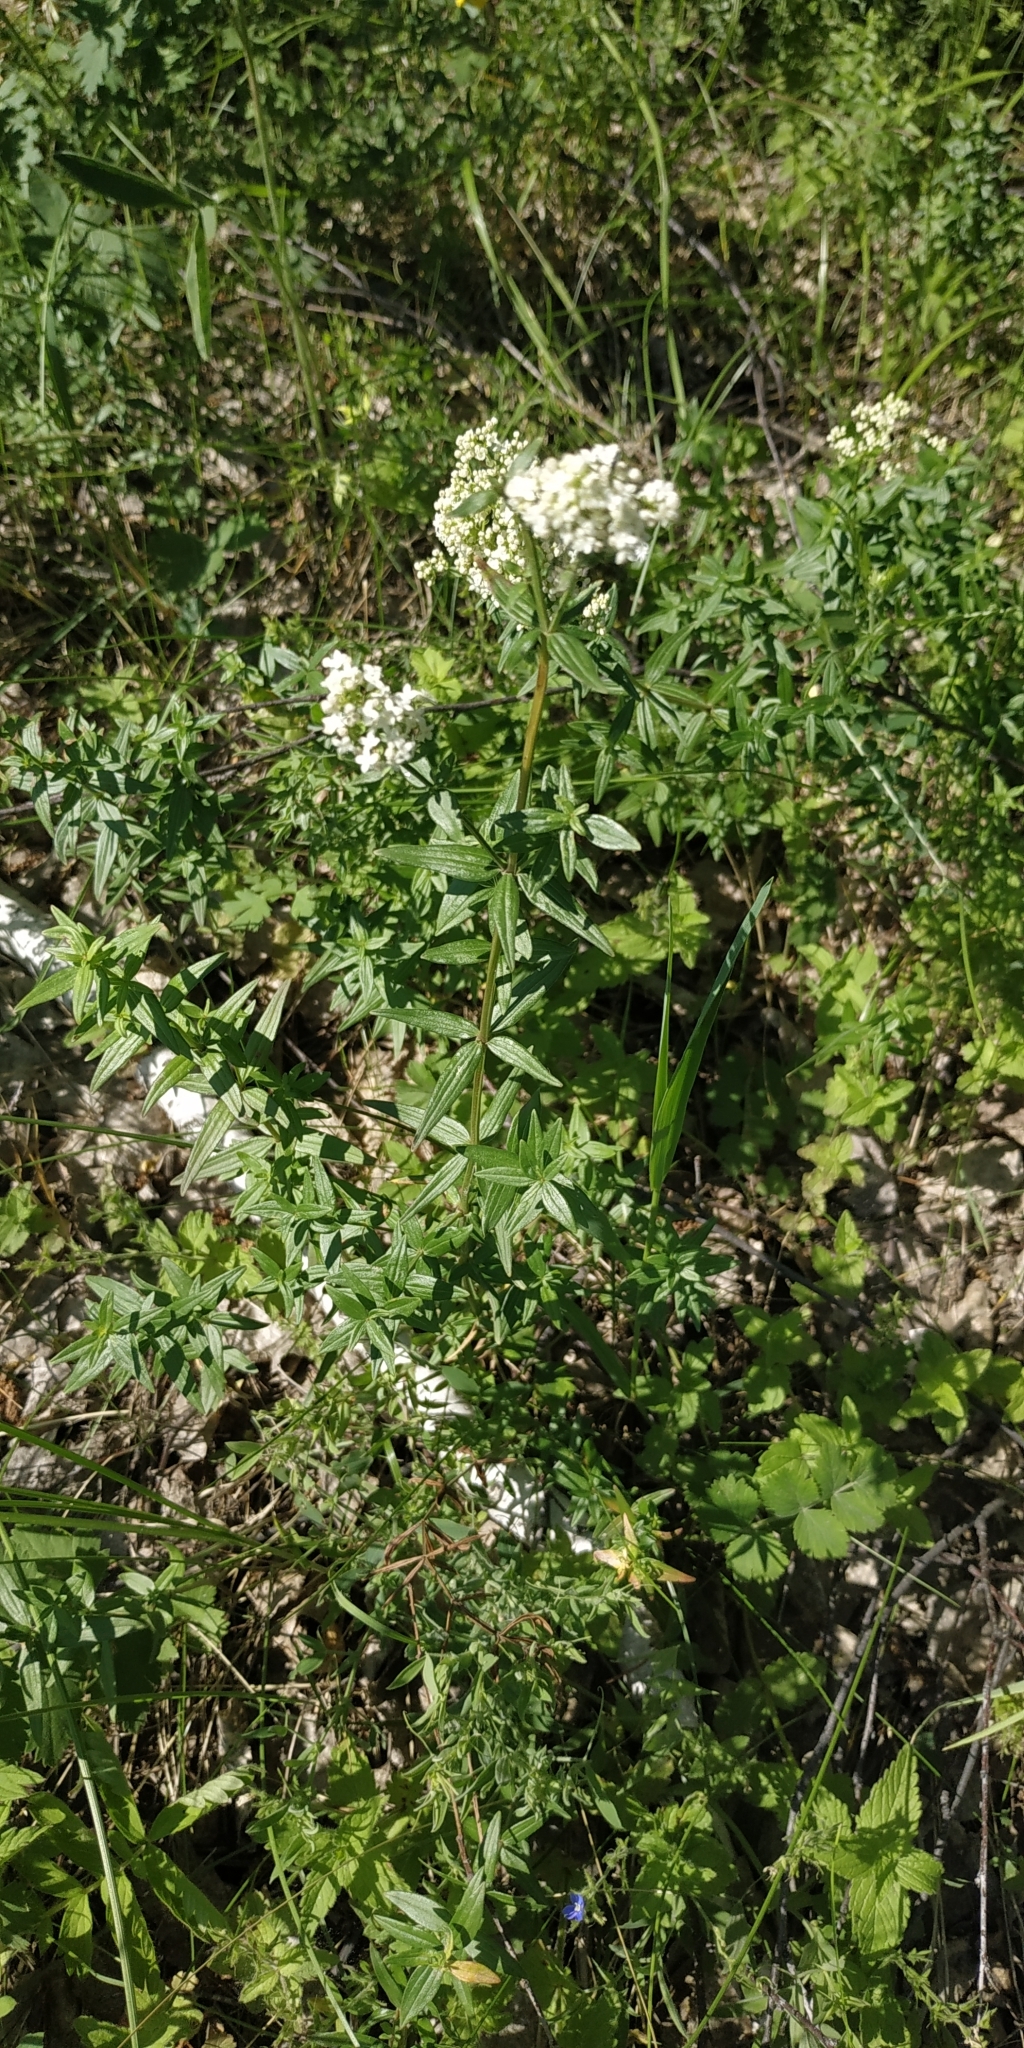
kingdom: Plantae
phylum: Tracheophyta
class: Magnoliopsida
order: Gentianales
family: Rubiaceae
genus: Galium
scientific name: Galium boreale
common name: Northern bedstraw
